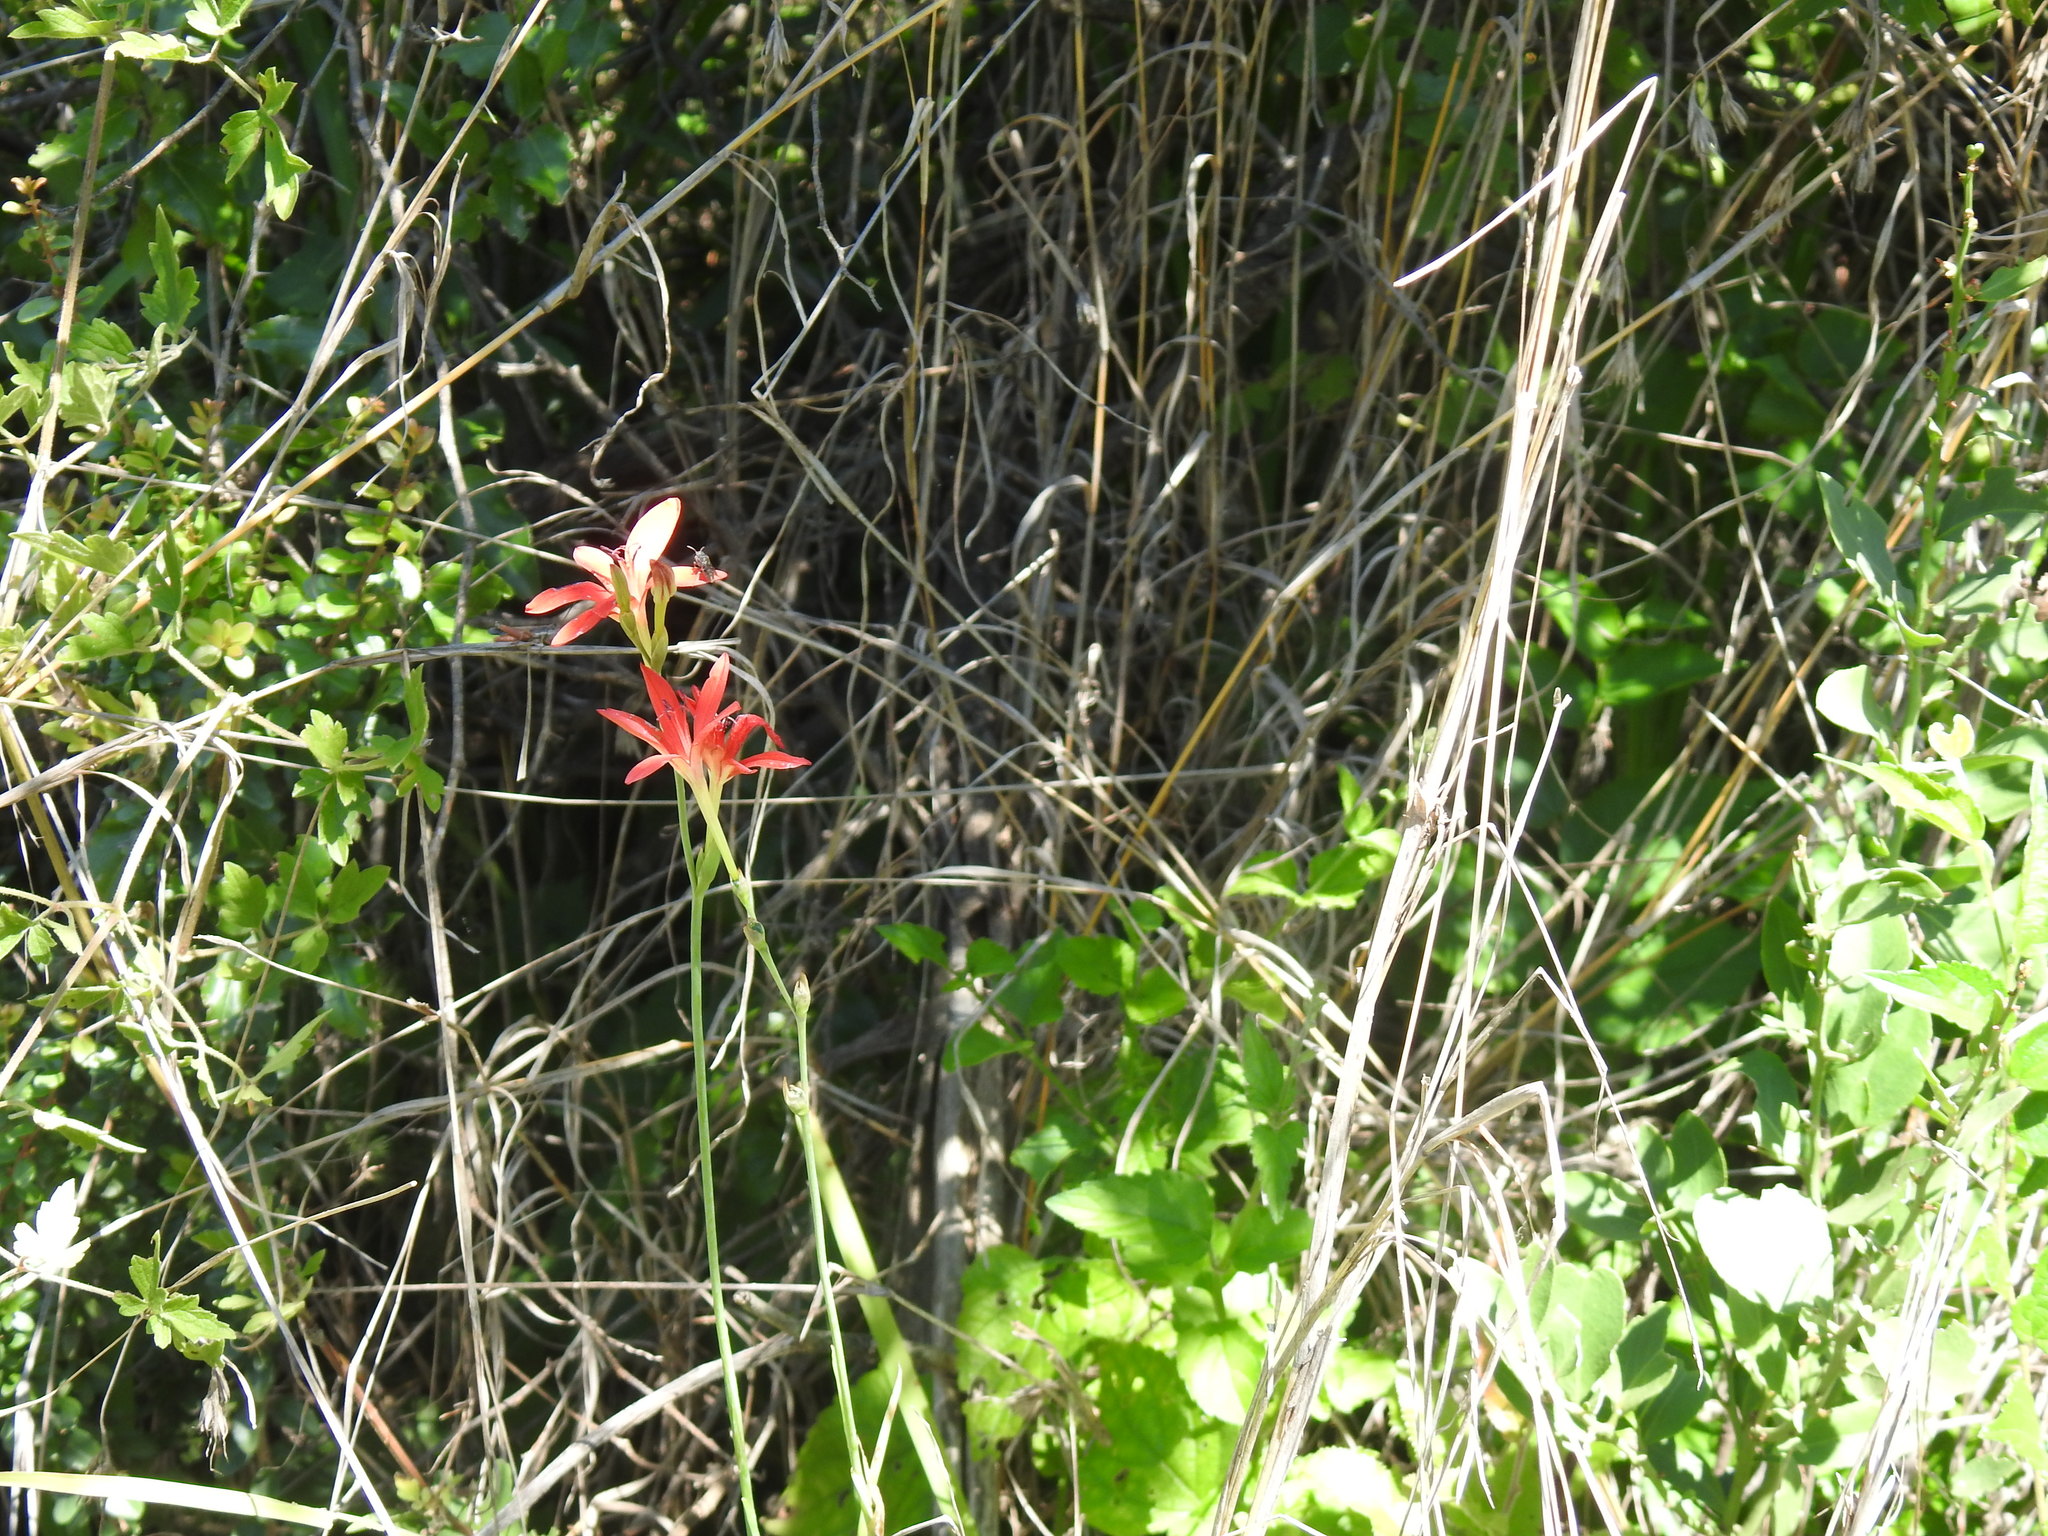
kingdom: Plantae
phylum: Tracheophyta
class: Liliopsida
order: Asparagales
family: Iridaceae
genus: Freesia
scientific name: Freesia grandiflora
